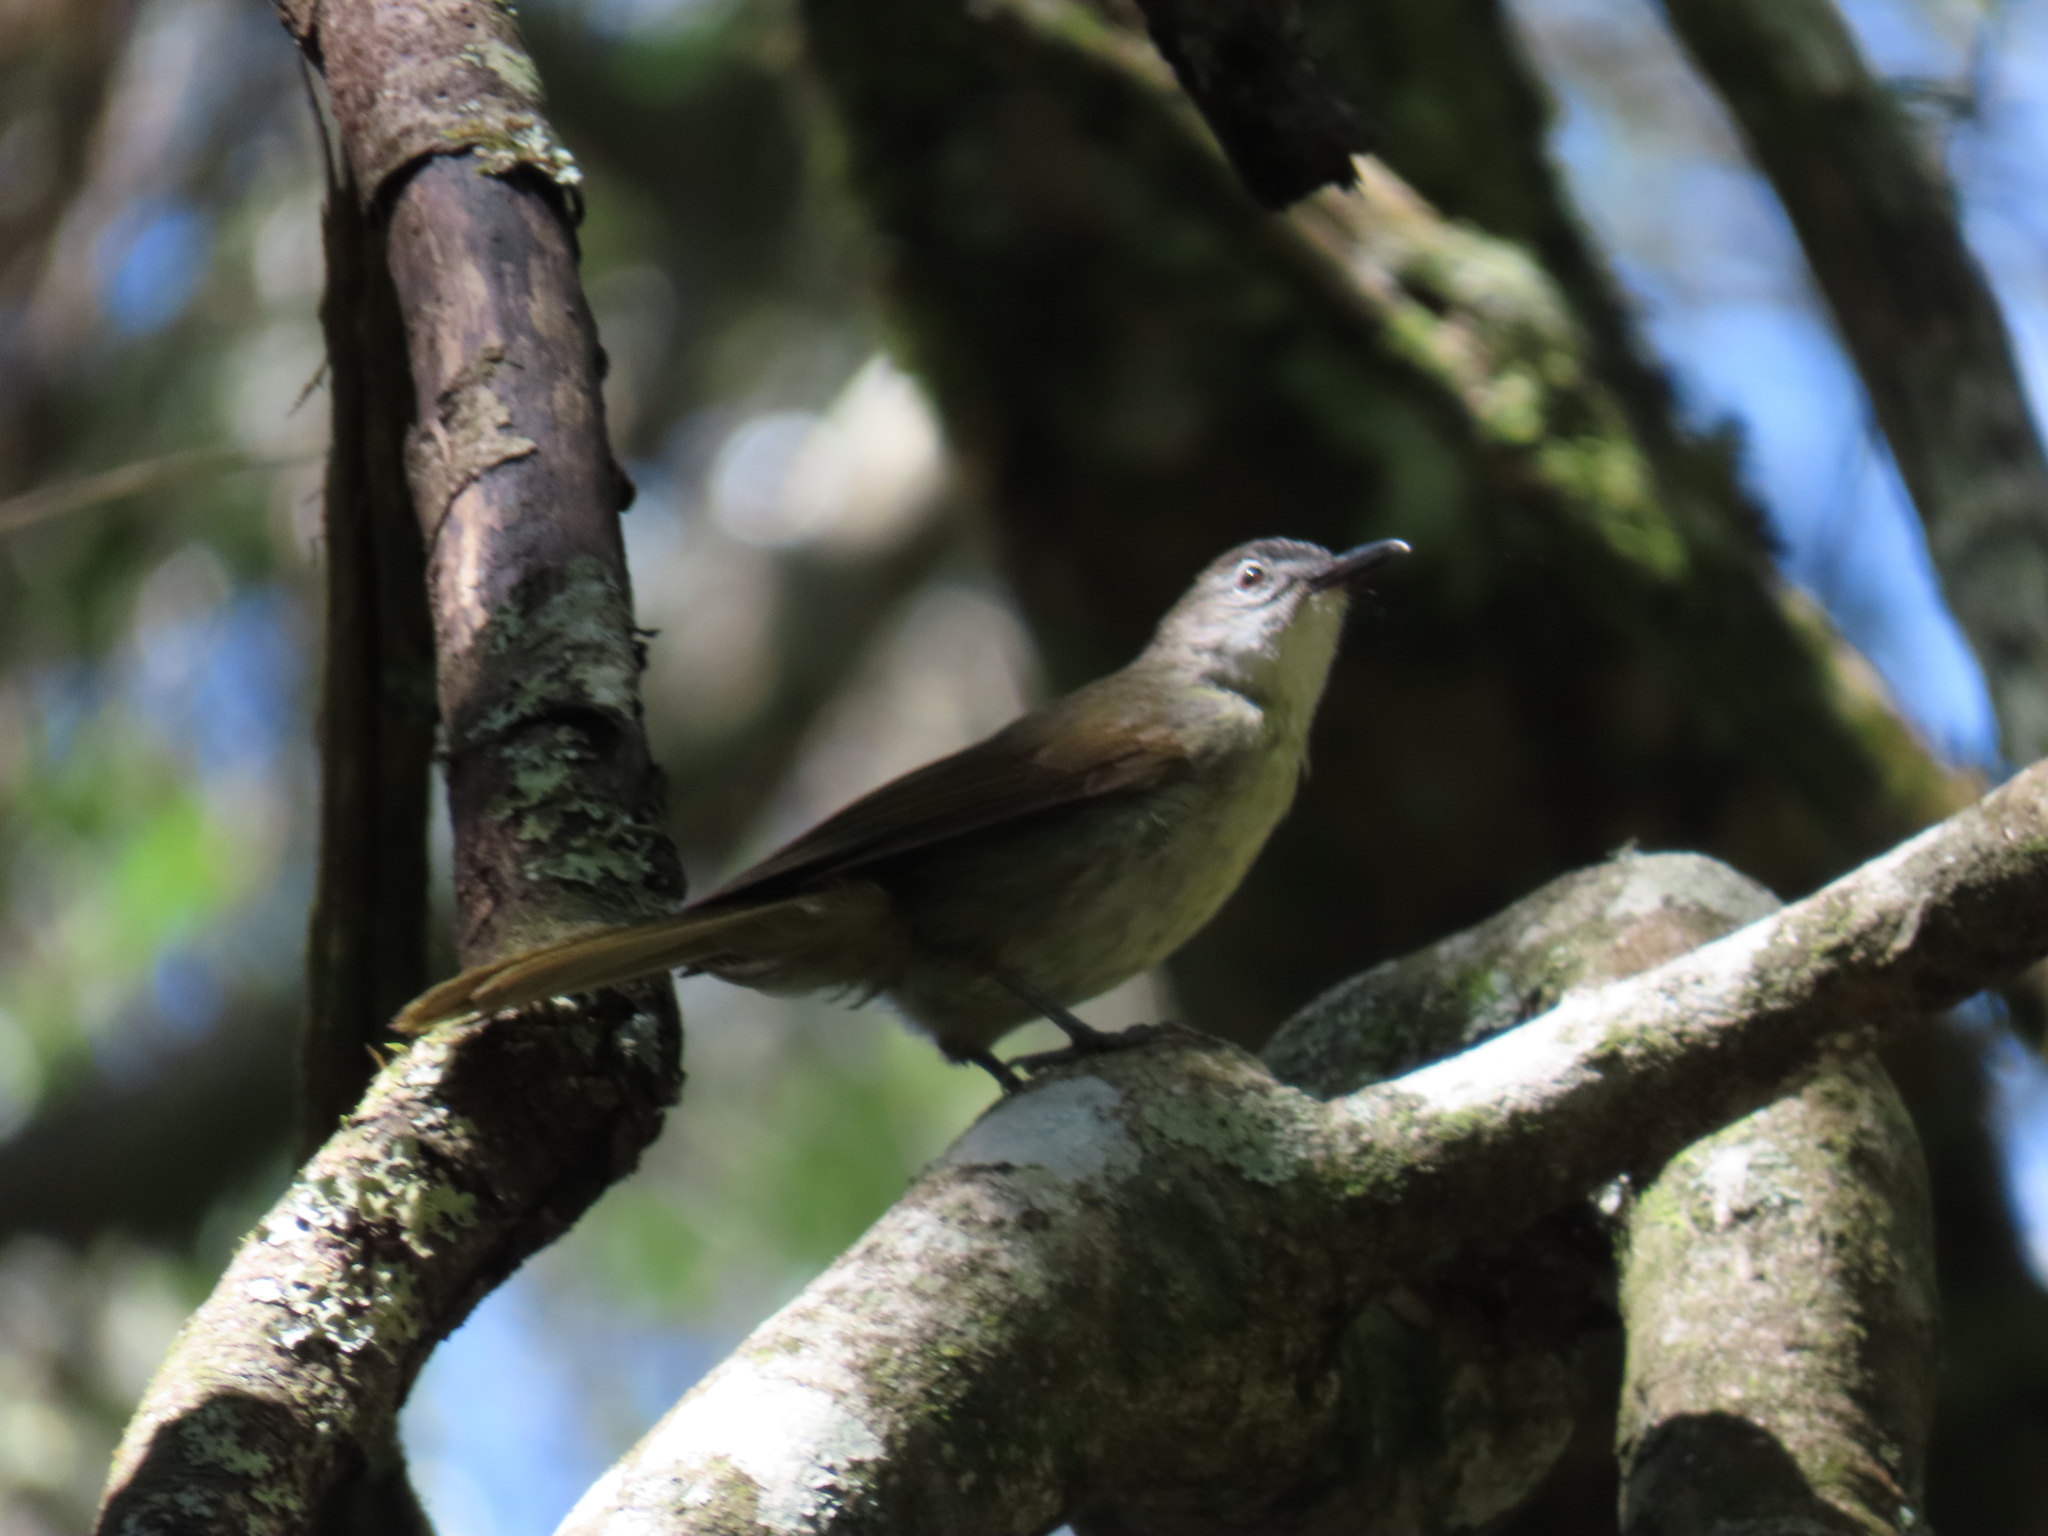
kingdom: Animalia
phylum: Chordata
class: Aves
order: Passeriformes
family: Pycnonotidae
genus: Phyllastrephus
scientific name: Phyllastrephus terrestris
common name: Terrestrial brownbul
